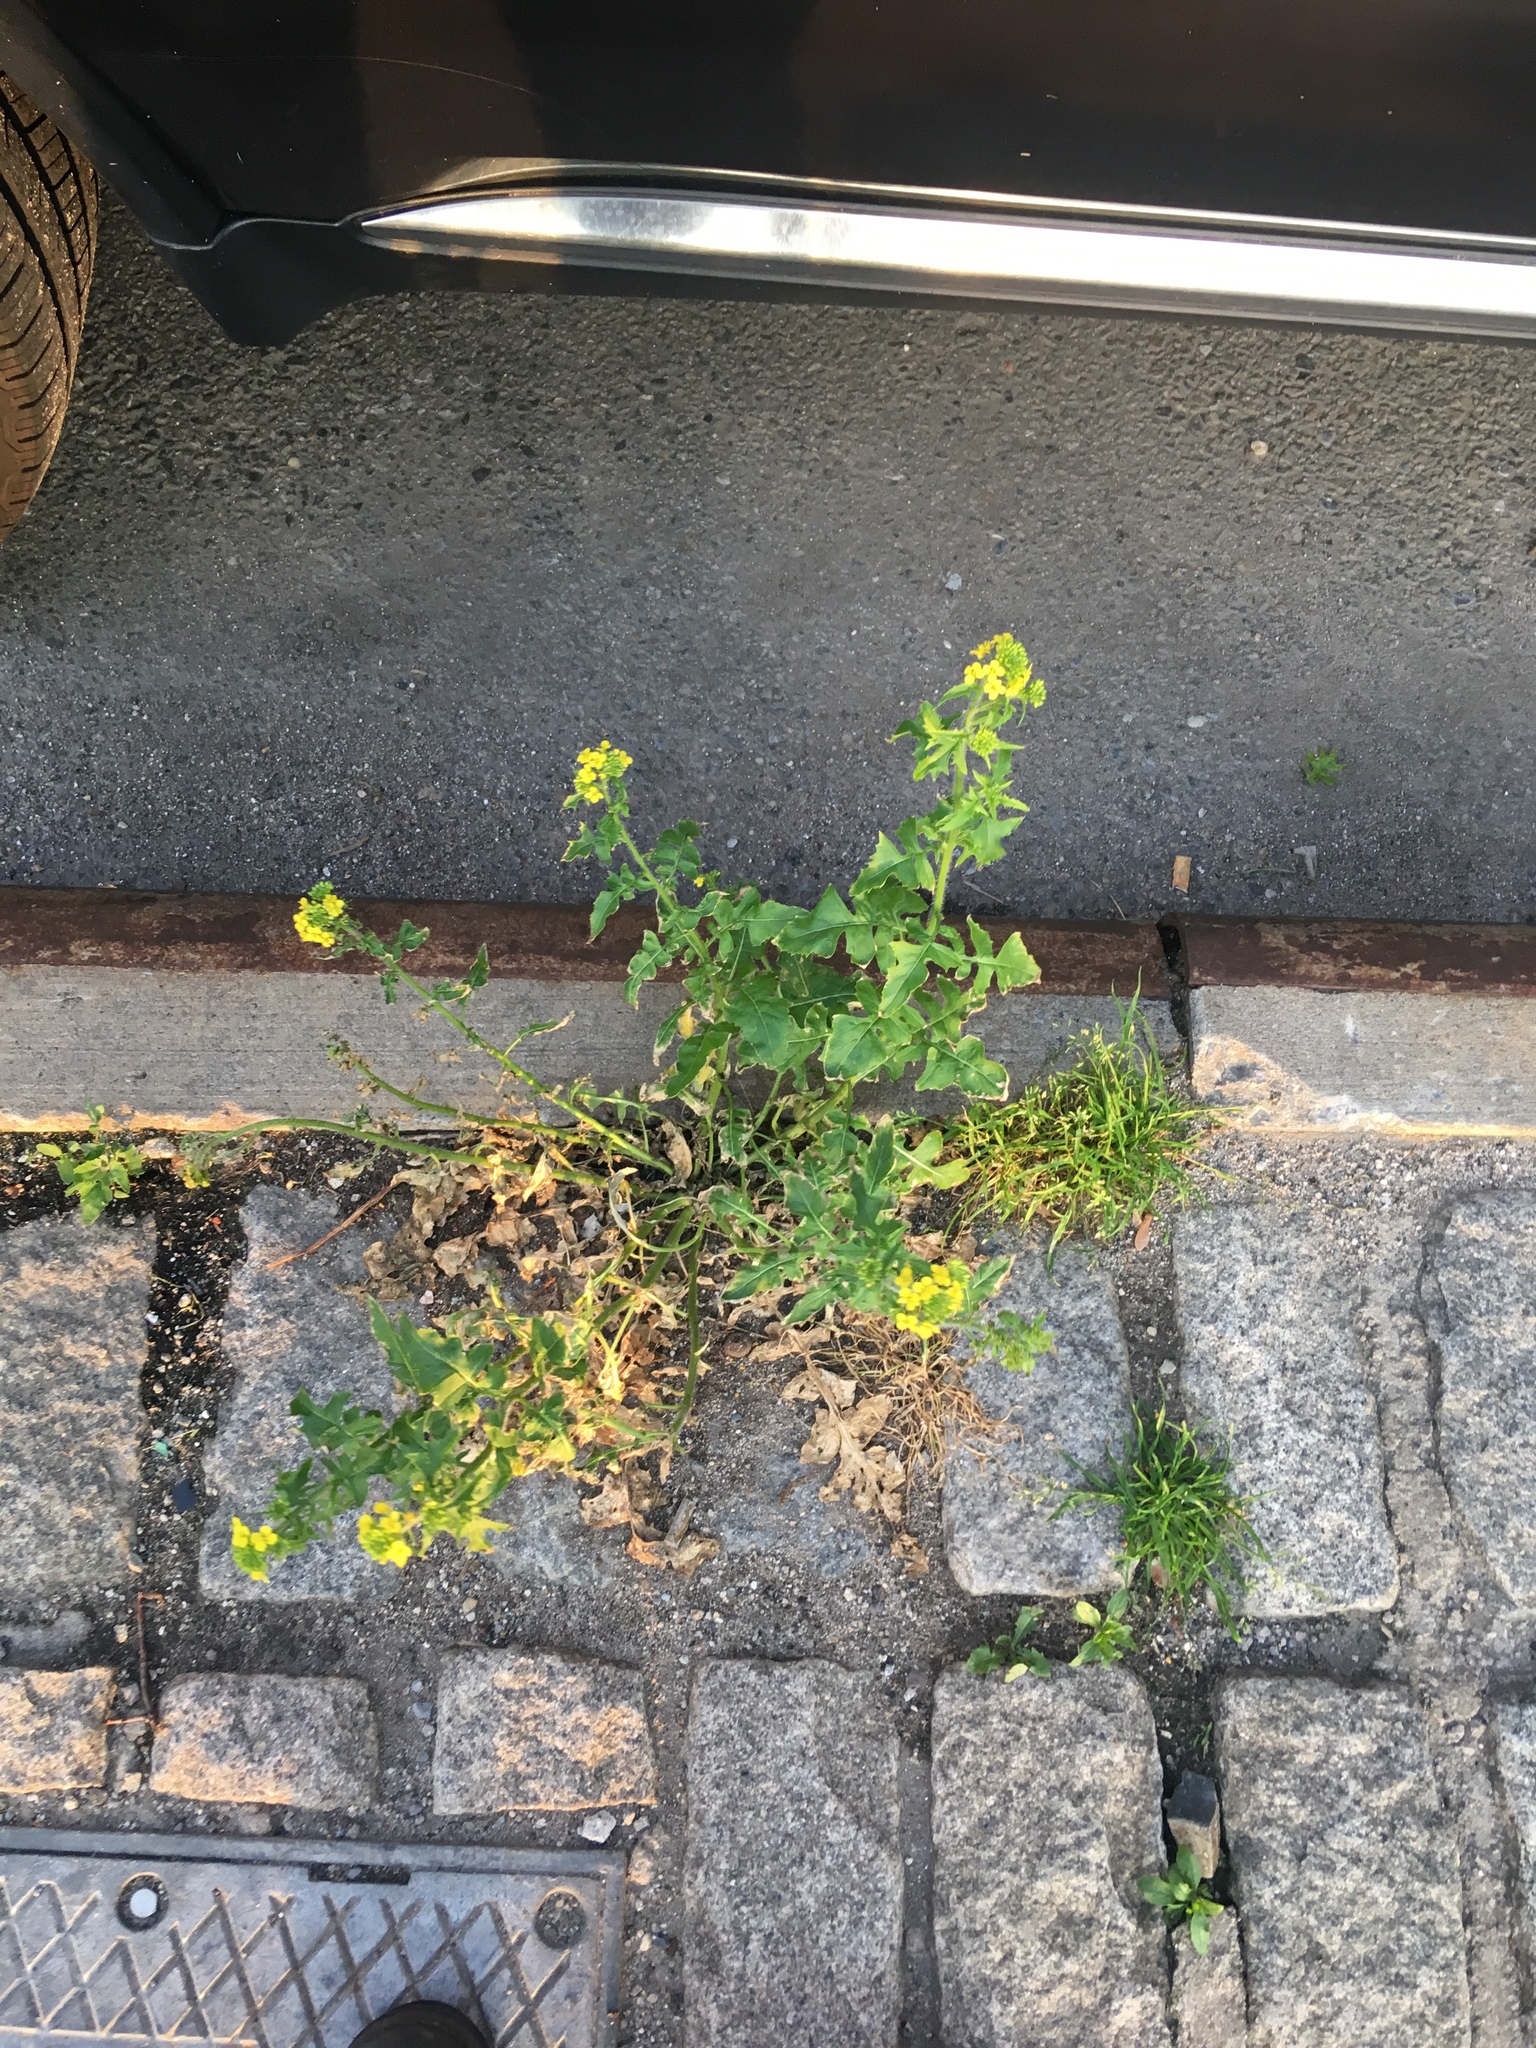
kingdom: Plantae
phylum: Tracheophyta
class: Magnoliopsida
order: Brassicales
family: Brassicaceae
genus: Sisymbrium
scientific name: Sisymbrium loeselii
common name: False london-rocket
